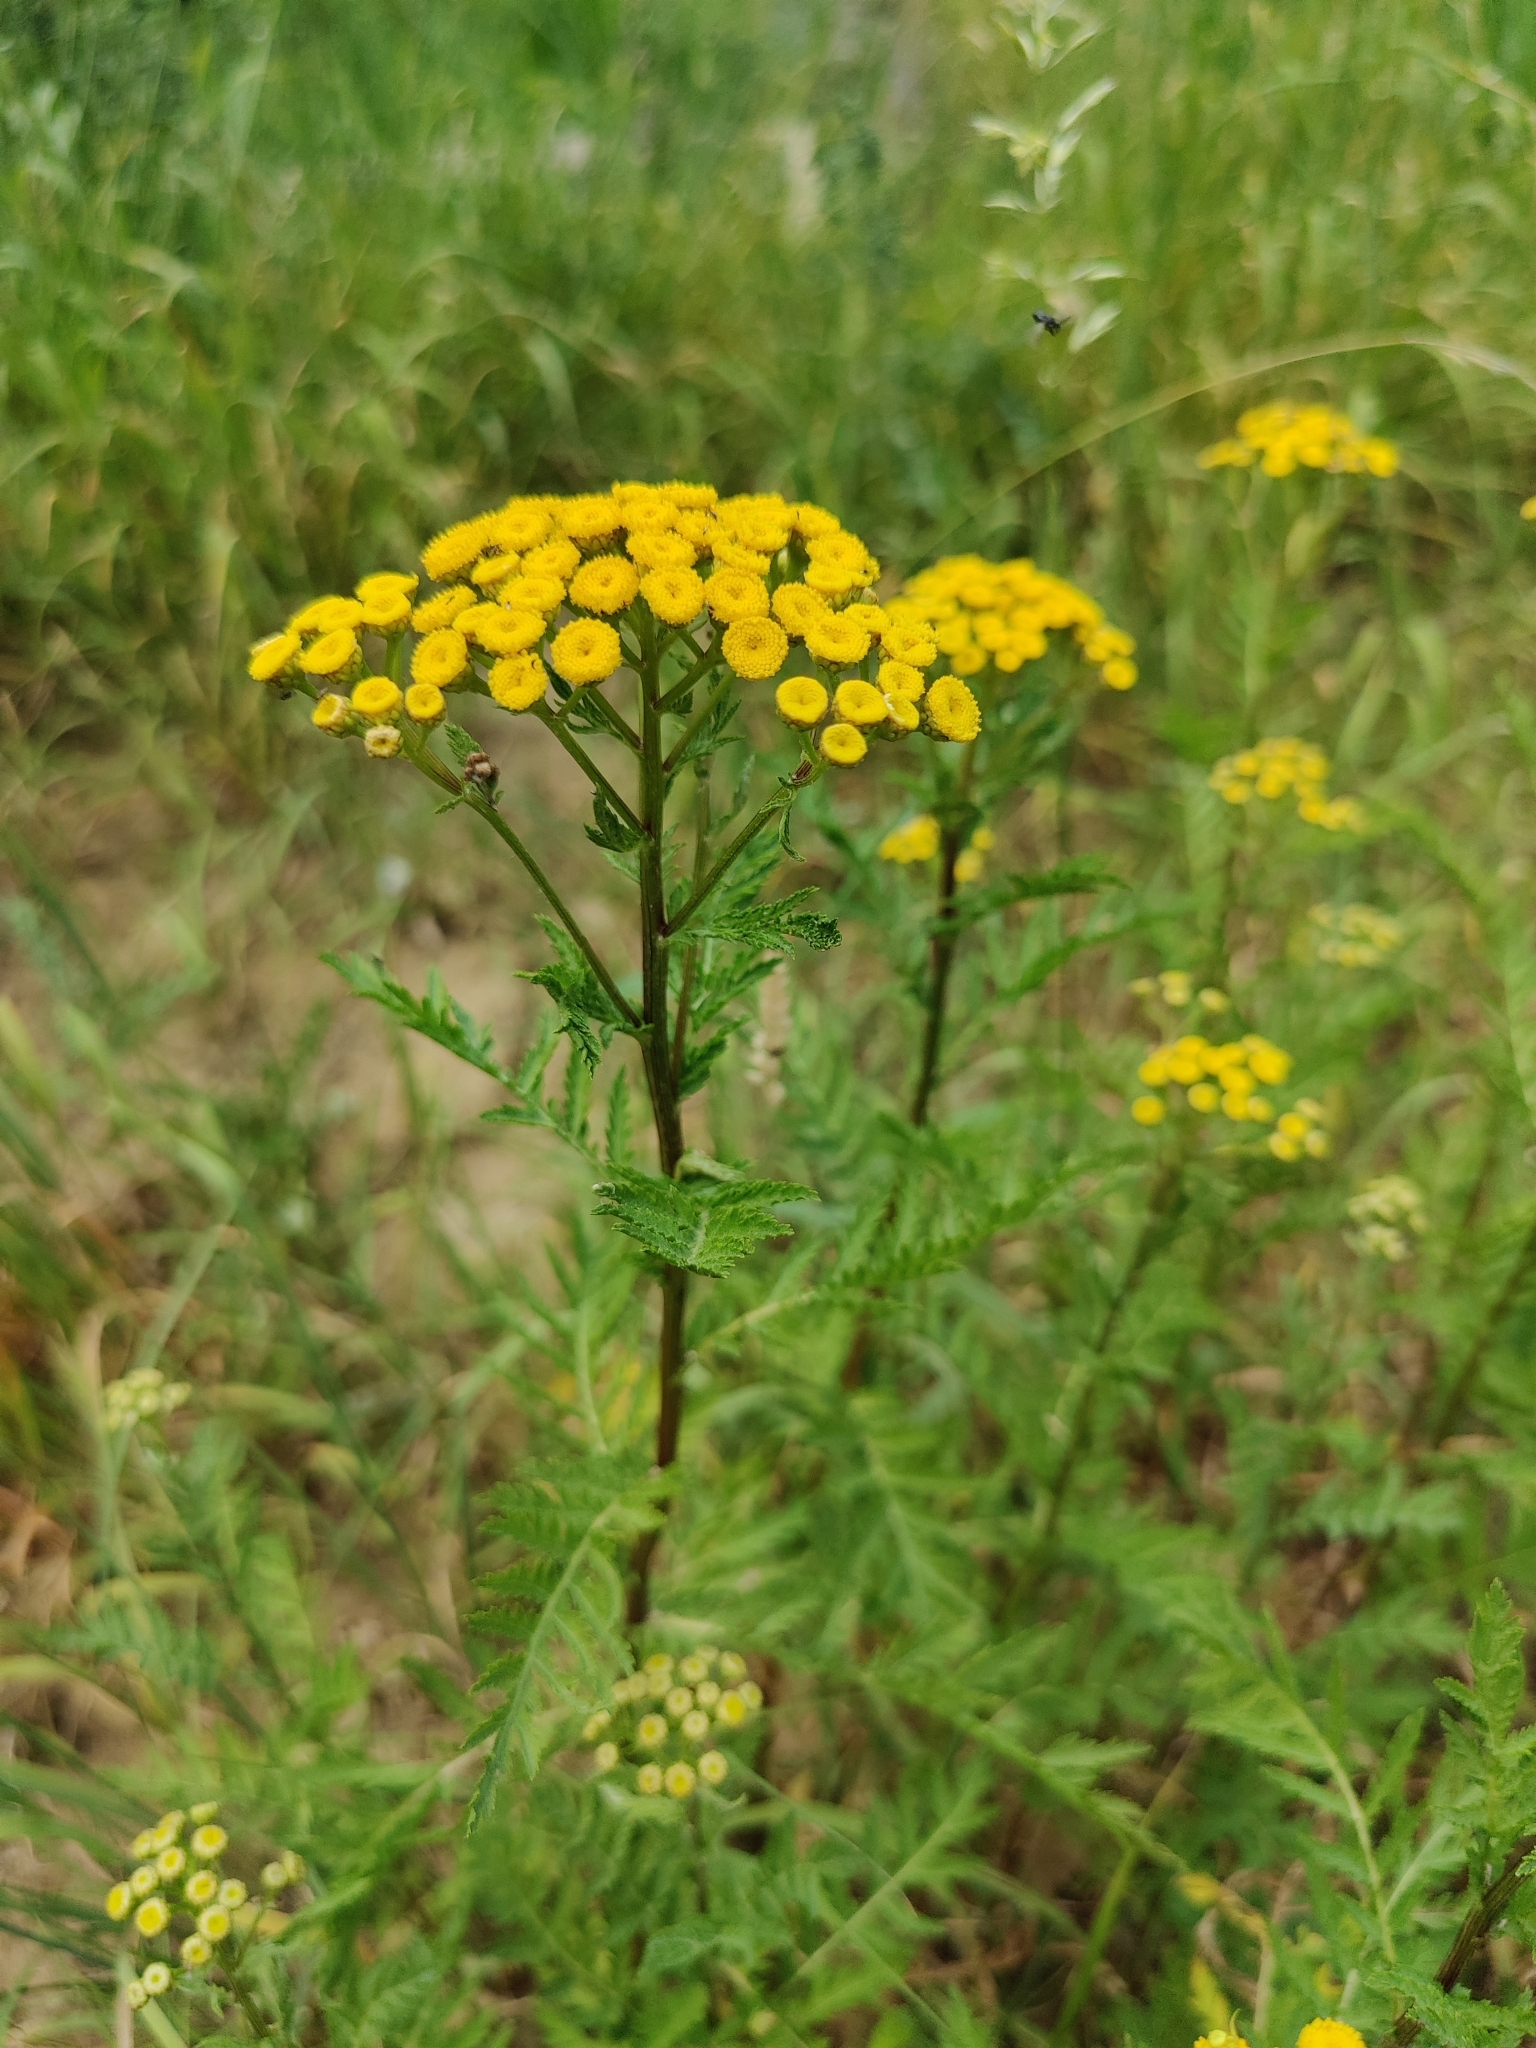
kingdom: Plantae
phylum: Tracheophyta
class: Magnoliopsida
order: Asterales
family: Asteraceae
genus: Tanacetum
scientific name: Tanacetum vulgare
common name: Common tansy
